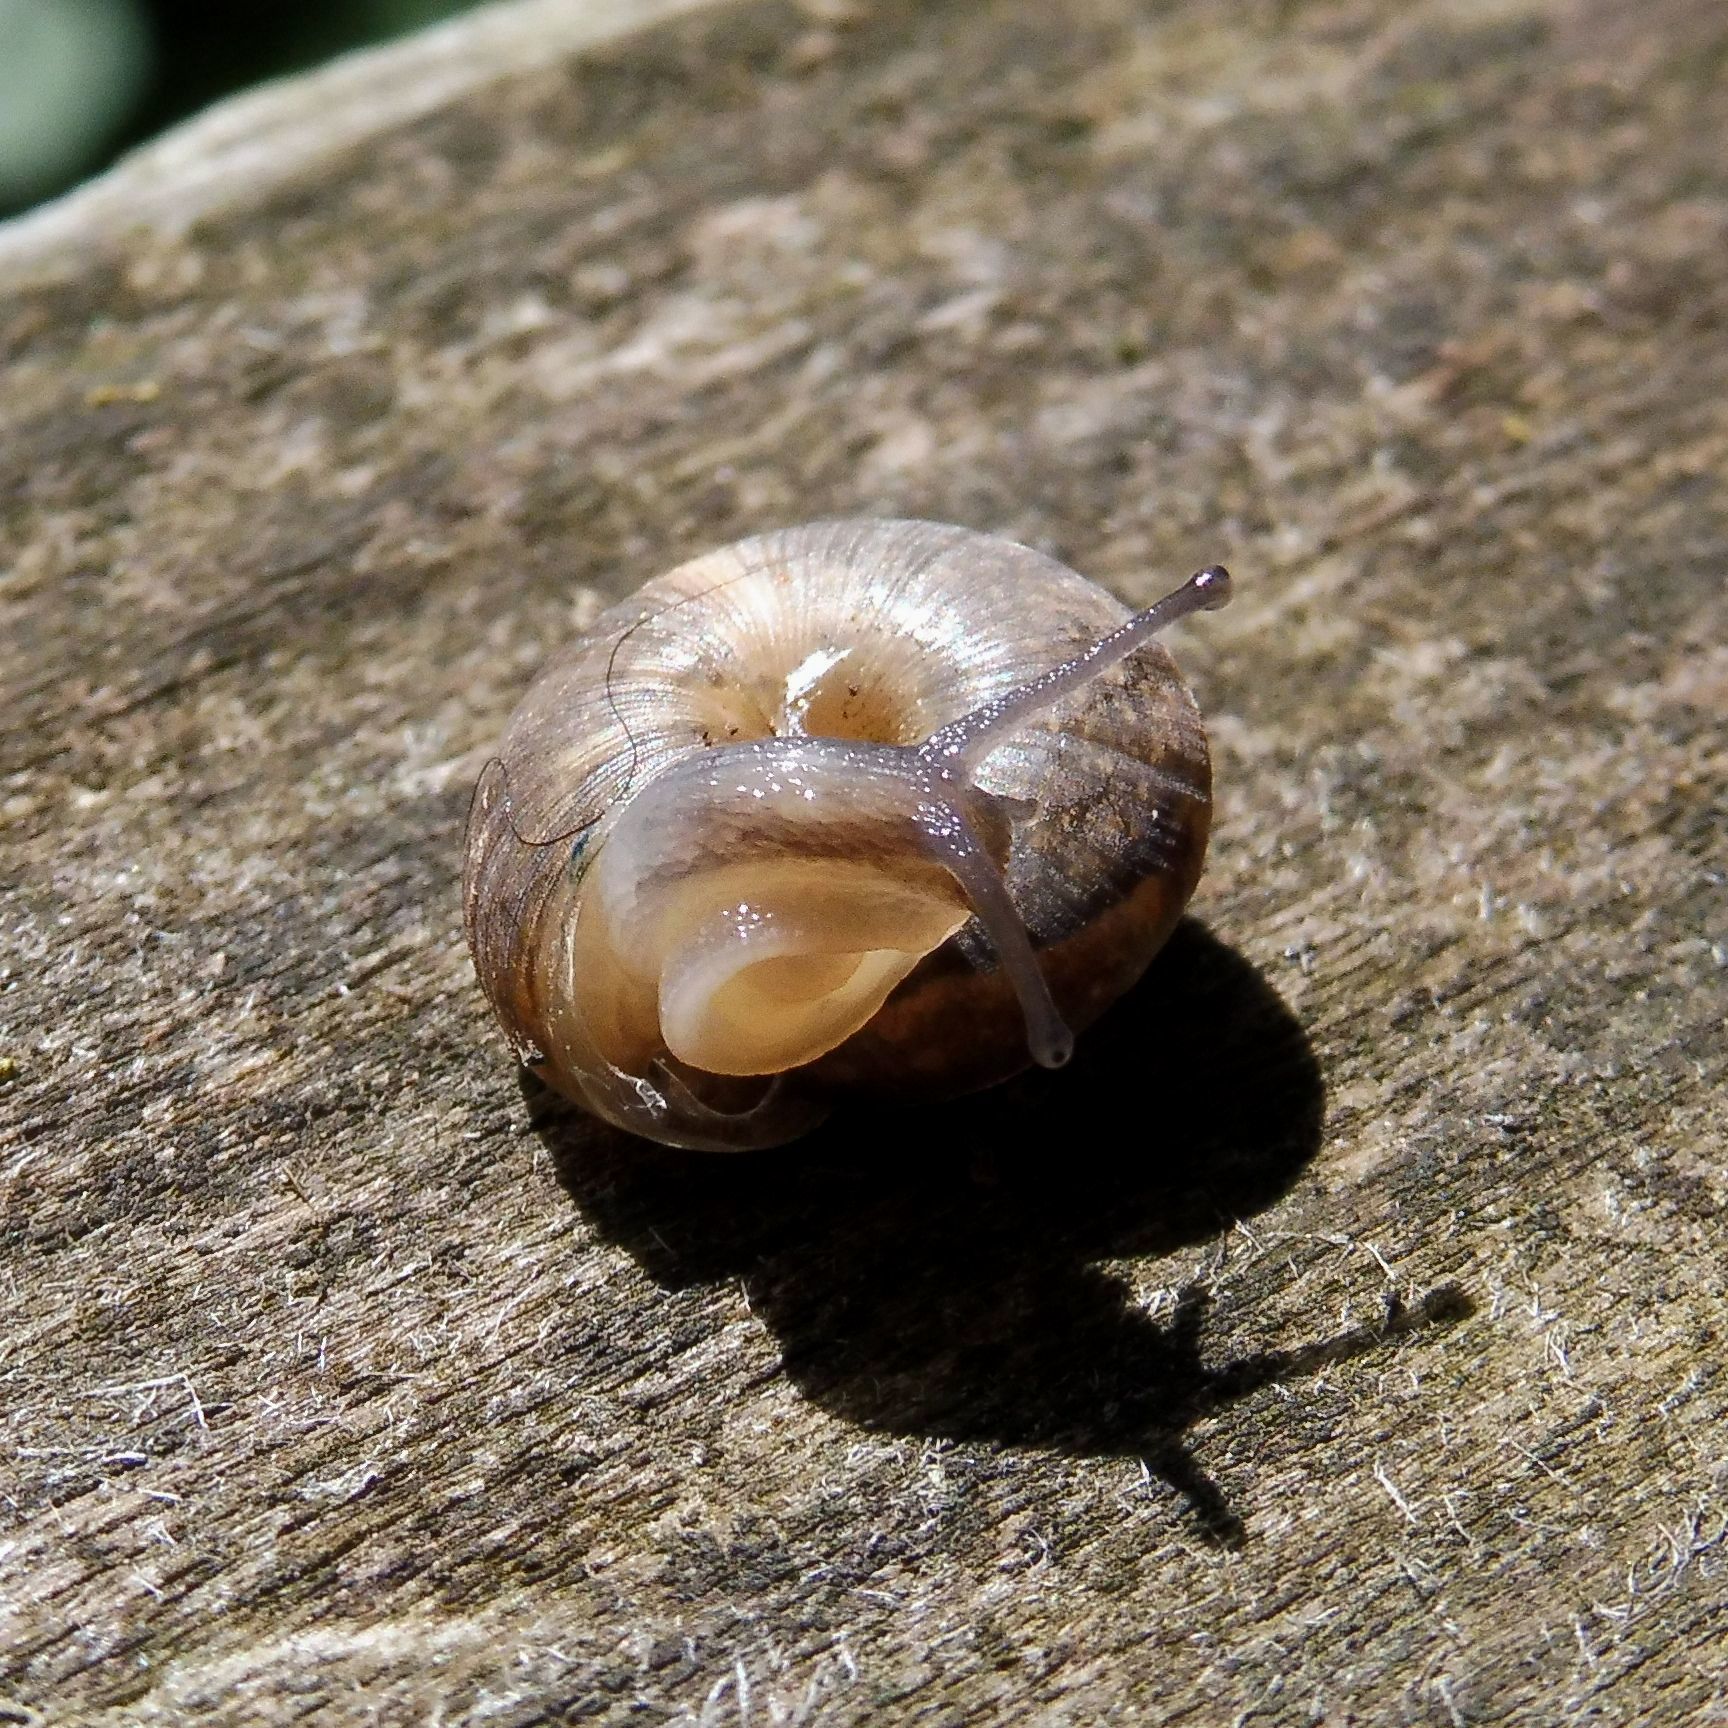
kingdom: Animalia
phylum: Mollusca
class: Gastropoda
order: Stylommatophora
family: Hygromiidae
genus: Trochulus
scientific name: Trochulus striolatus
